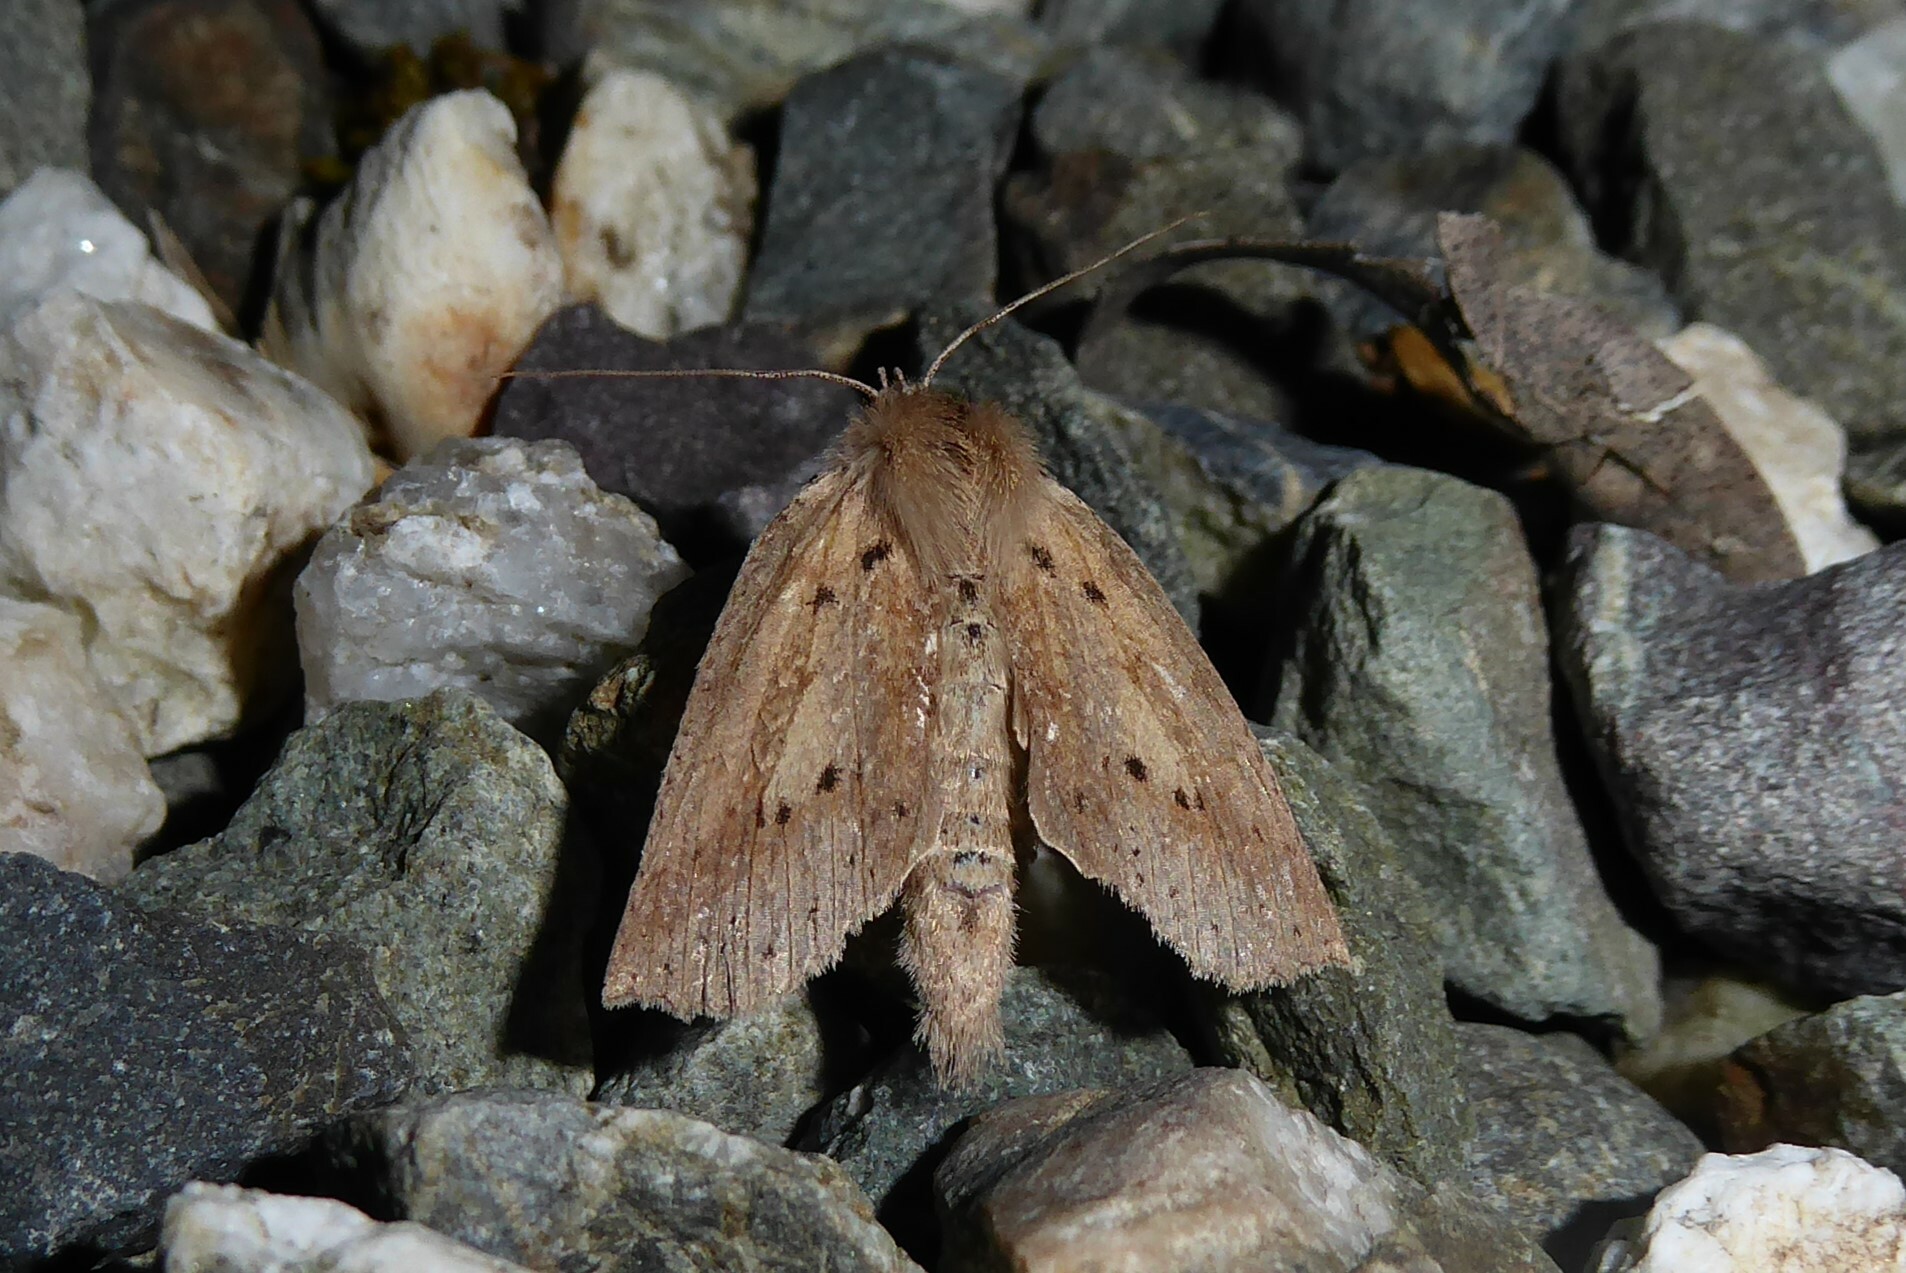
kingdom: Animalia
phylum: Arthropoda
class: Insecta
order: Lepidoptera
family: Geometridae
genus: Declana
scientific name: Declana leptomera
